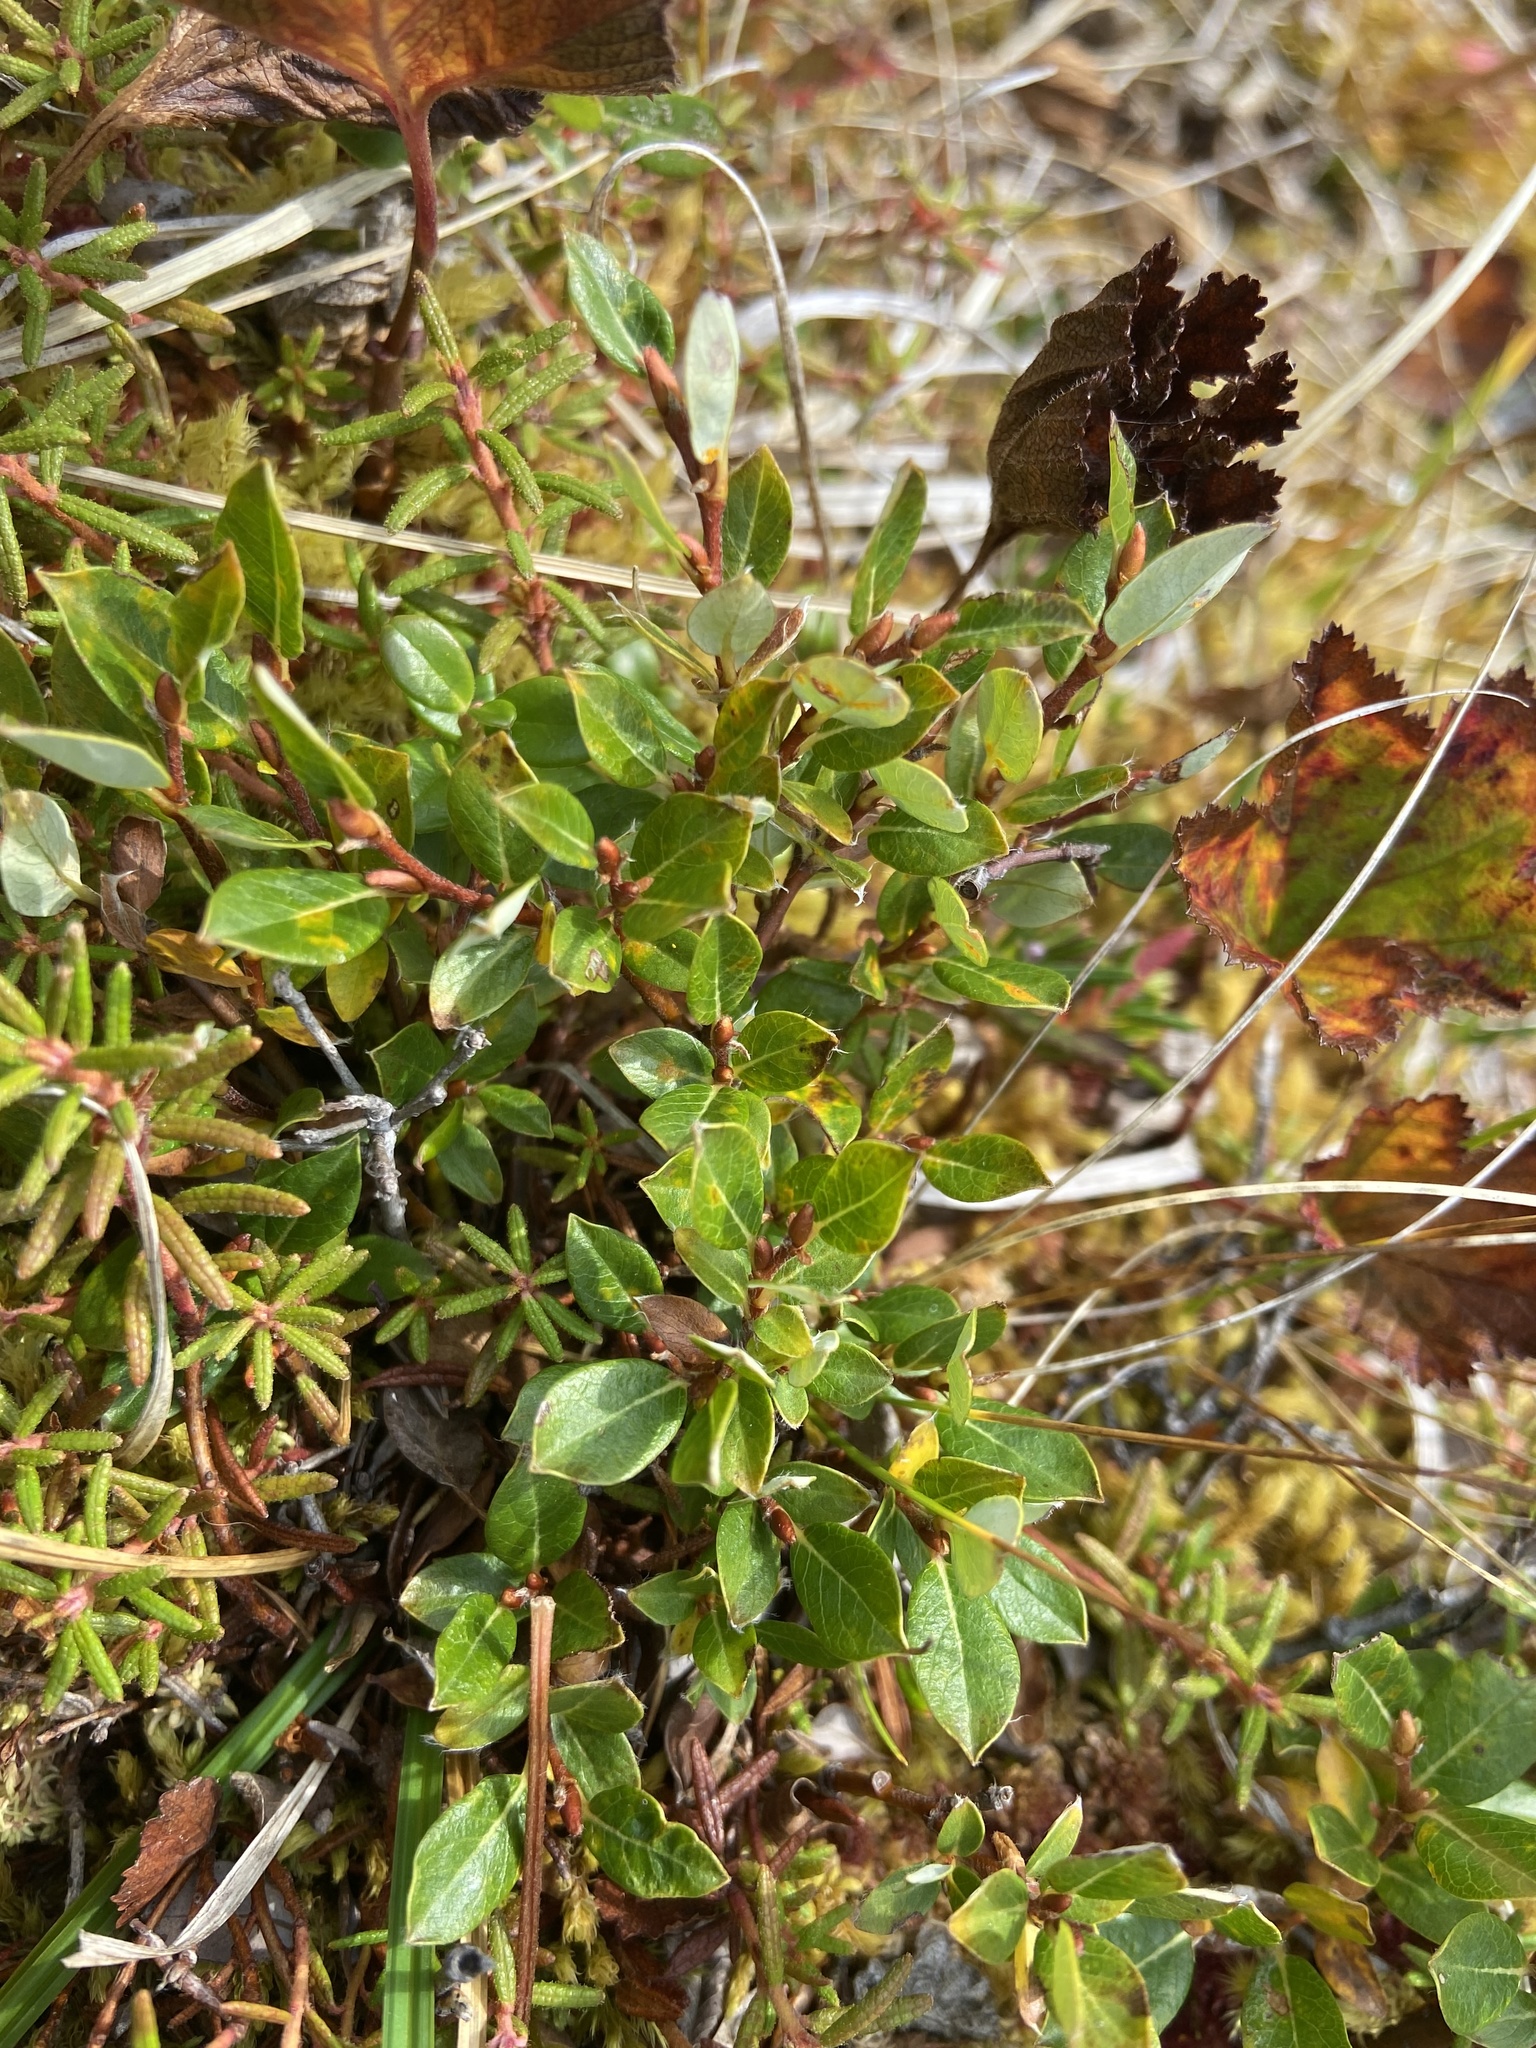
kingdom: Plantae
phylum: Tracheophyta
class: Magnoliopsida
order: Malpighiales
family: Salicaceae
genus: Salix
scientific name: Salix pulchra
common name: Diamond-leaved willow
